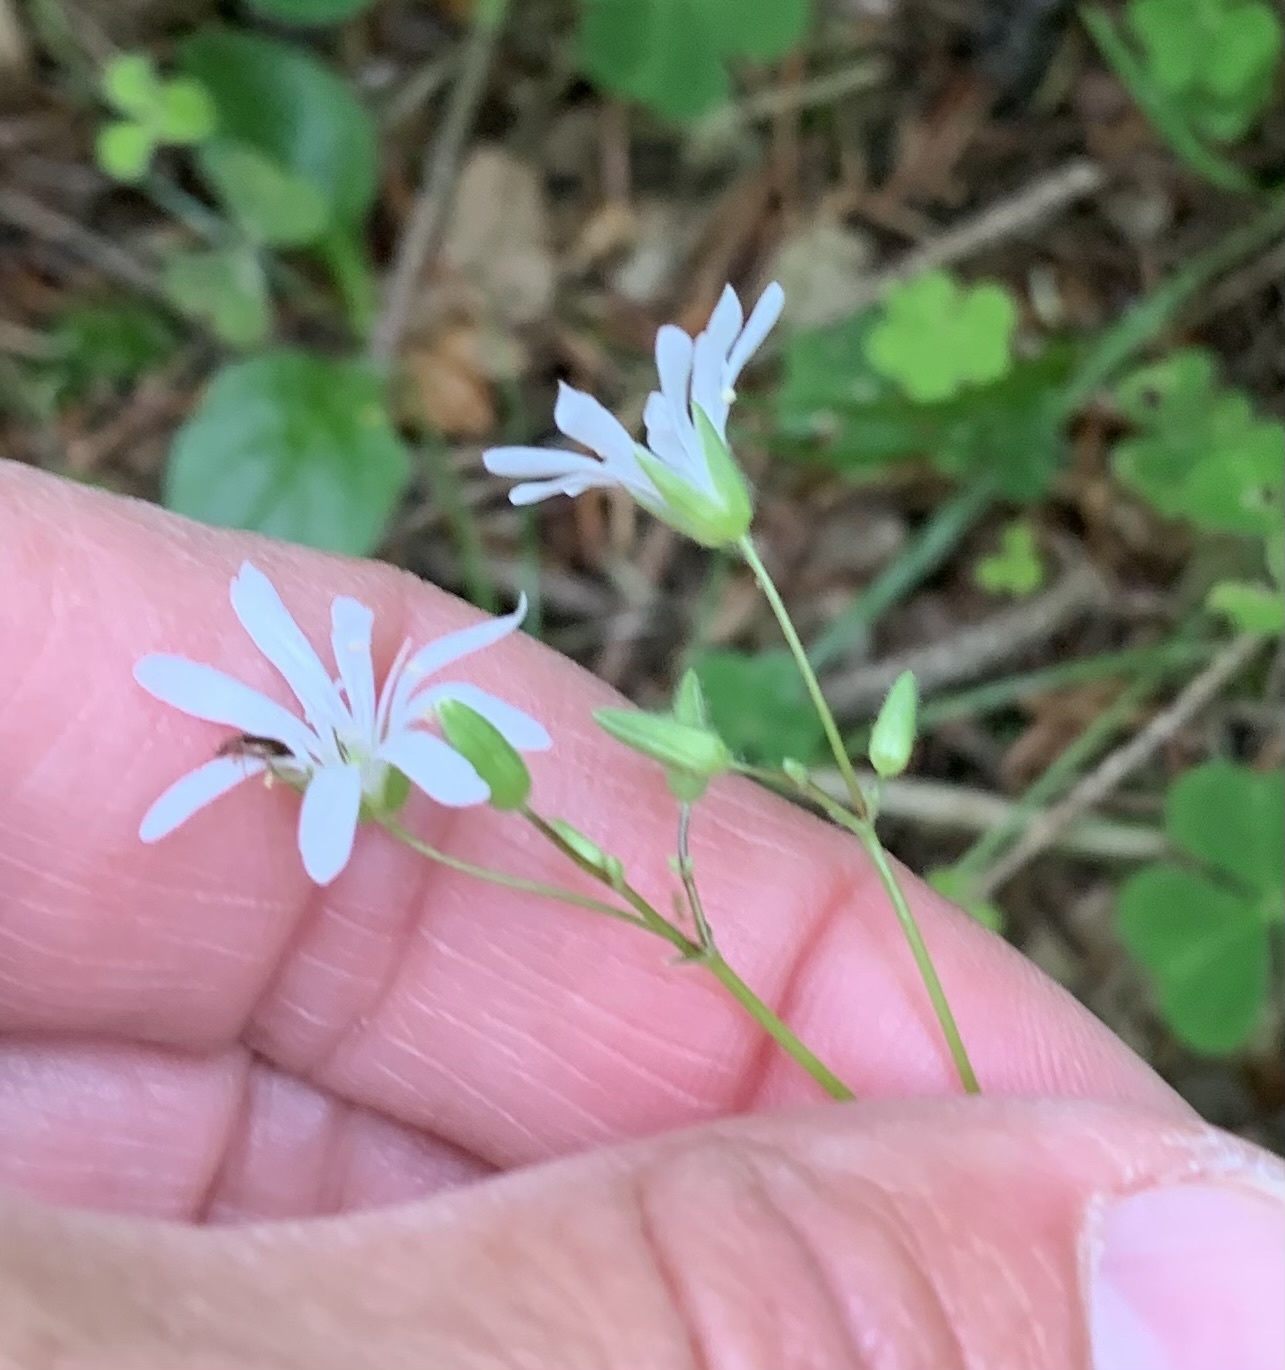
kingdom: Plantae
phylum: Tracheophyta
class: Magnoliopsida
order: Caryophyllales
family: Caryophyllaceae
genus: Stellaria
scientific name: Stellaria nemorum
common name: Wood stitchwort
